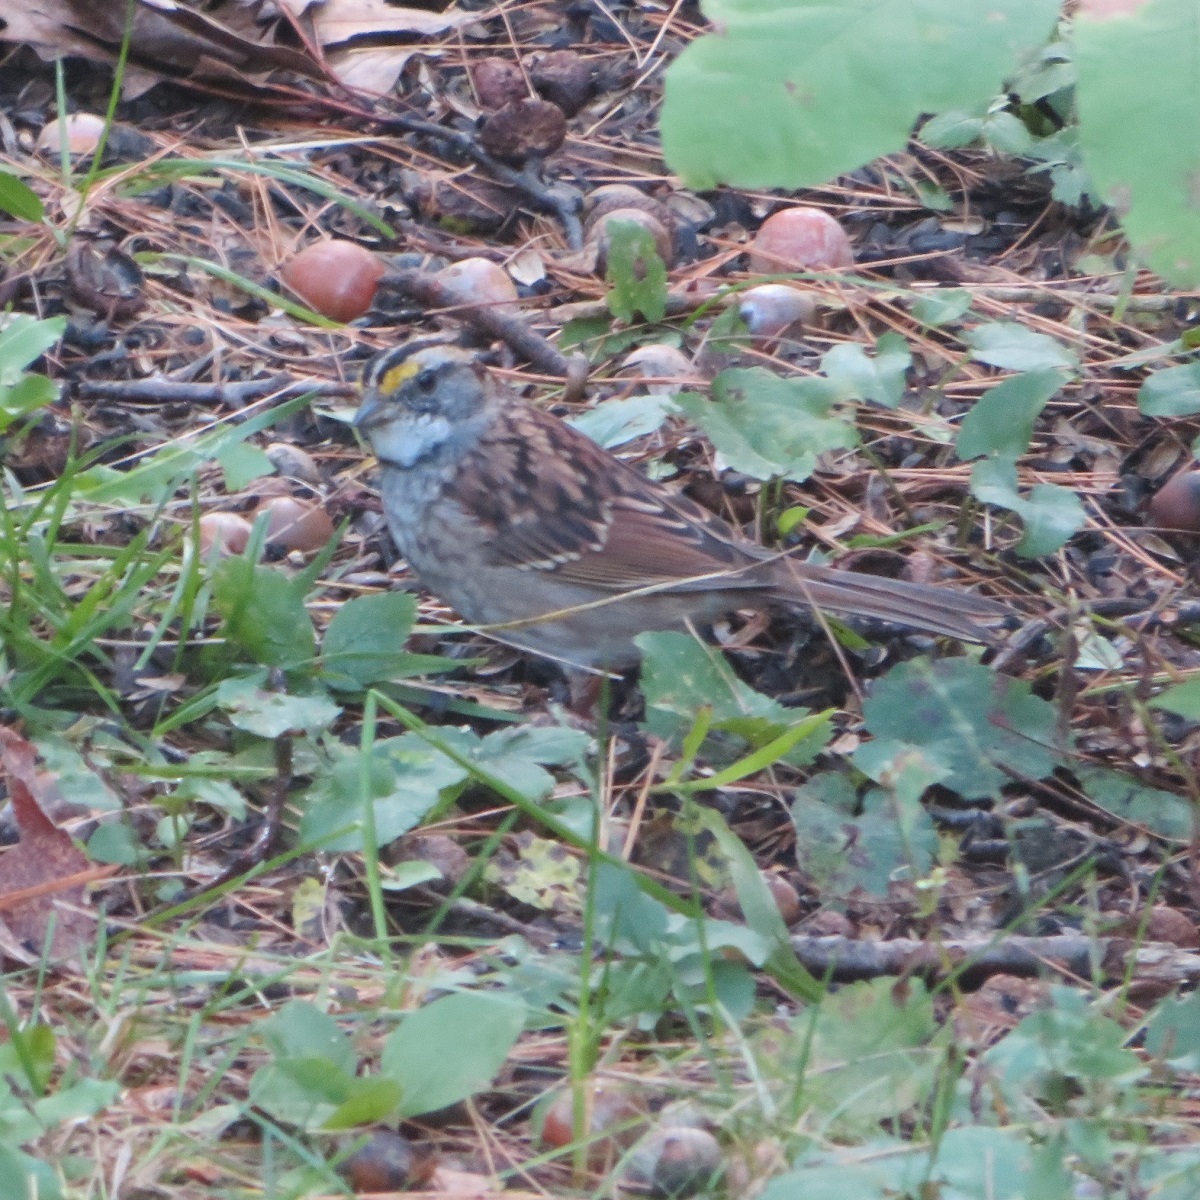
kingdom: Animalia
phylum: Chordata
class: Aves
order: Passeriformes
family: Passerellidae
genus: Zonotrichia
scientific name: Zonotrichia albicollis
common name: White-throated sparrow
